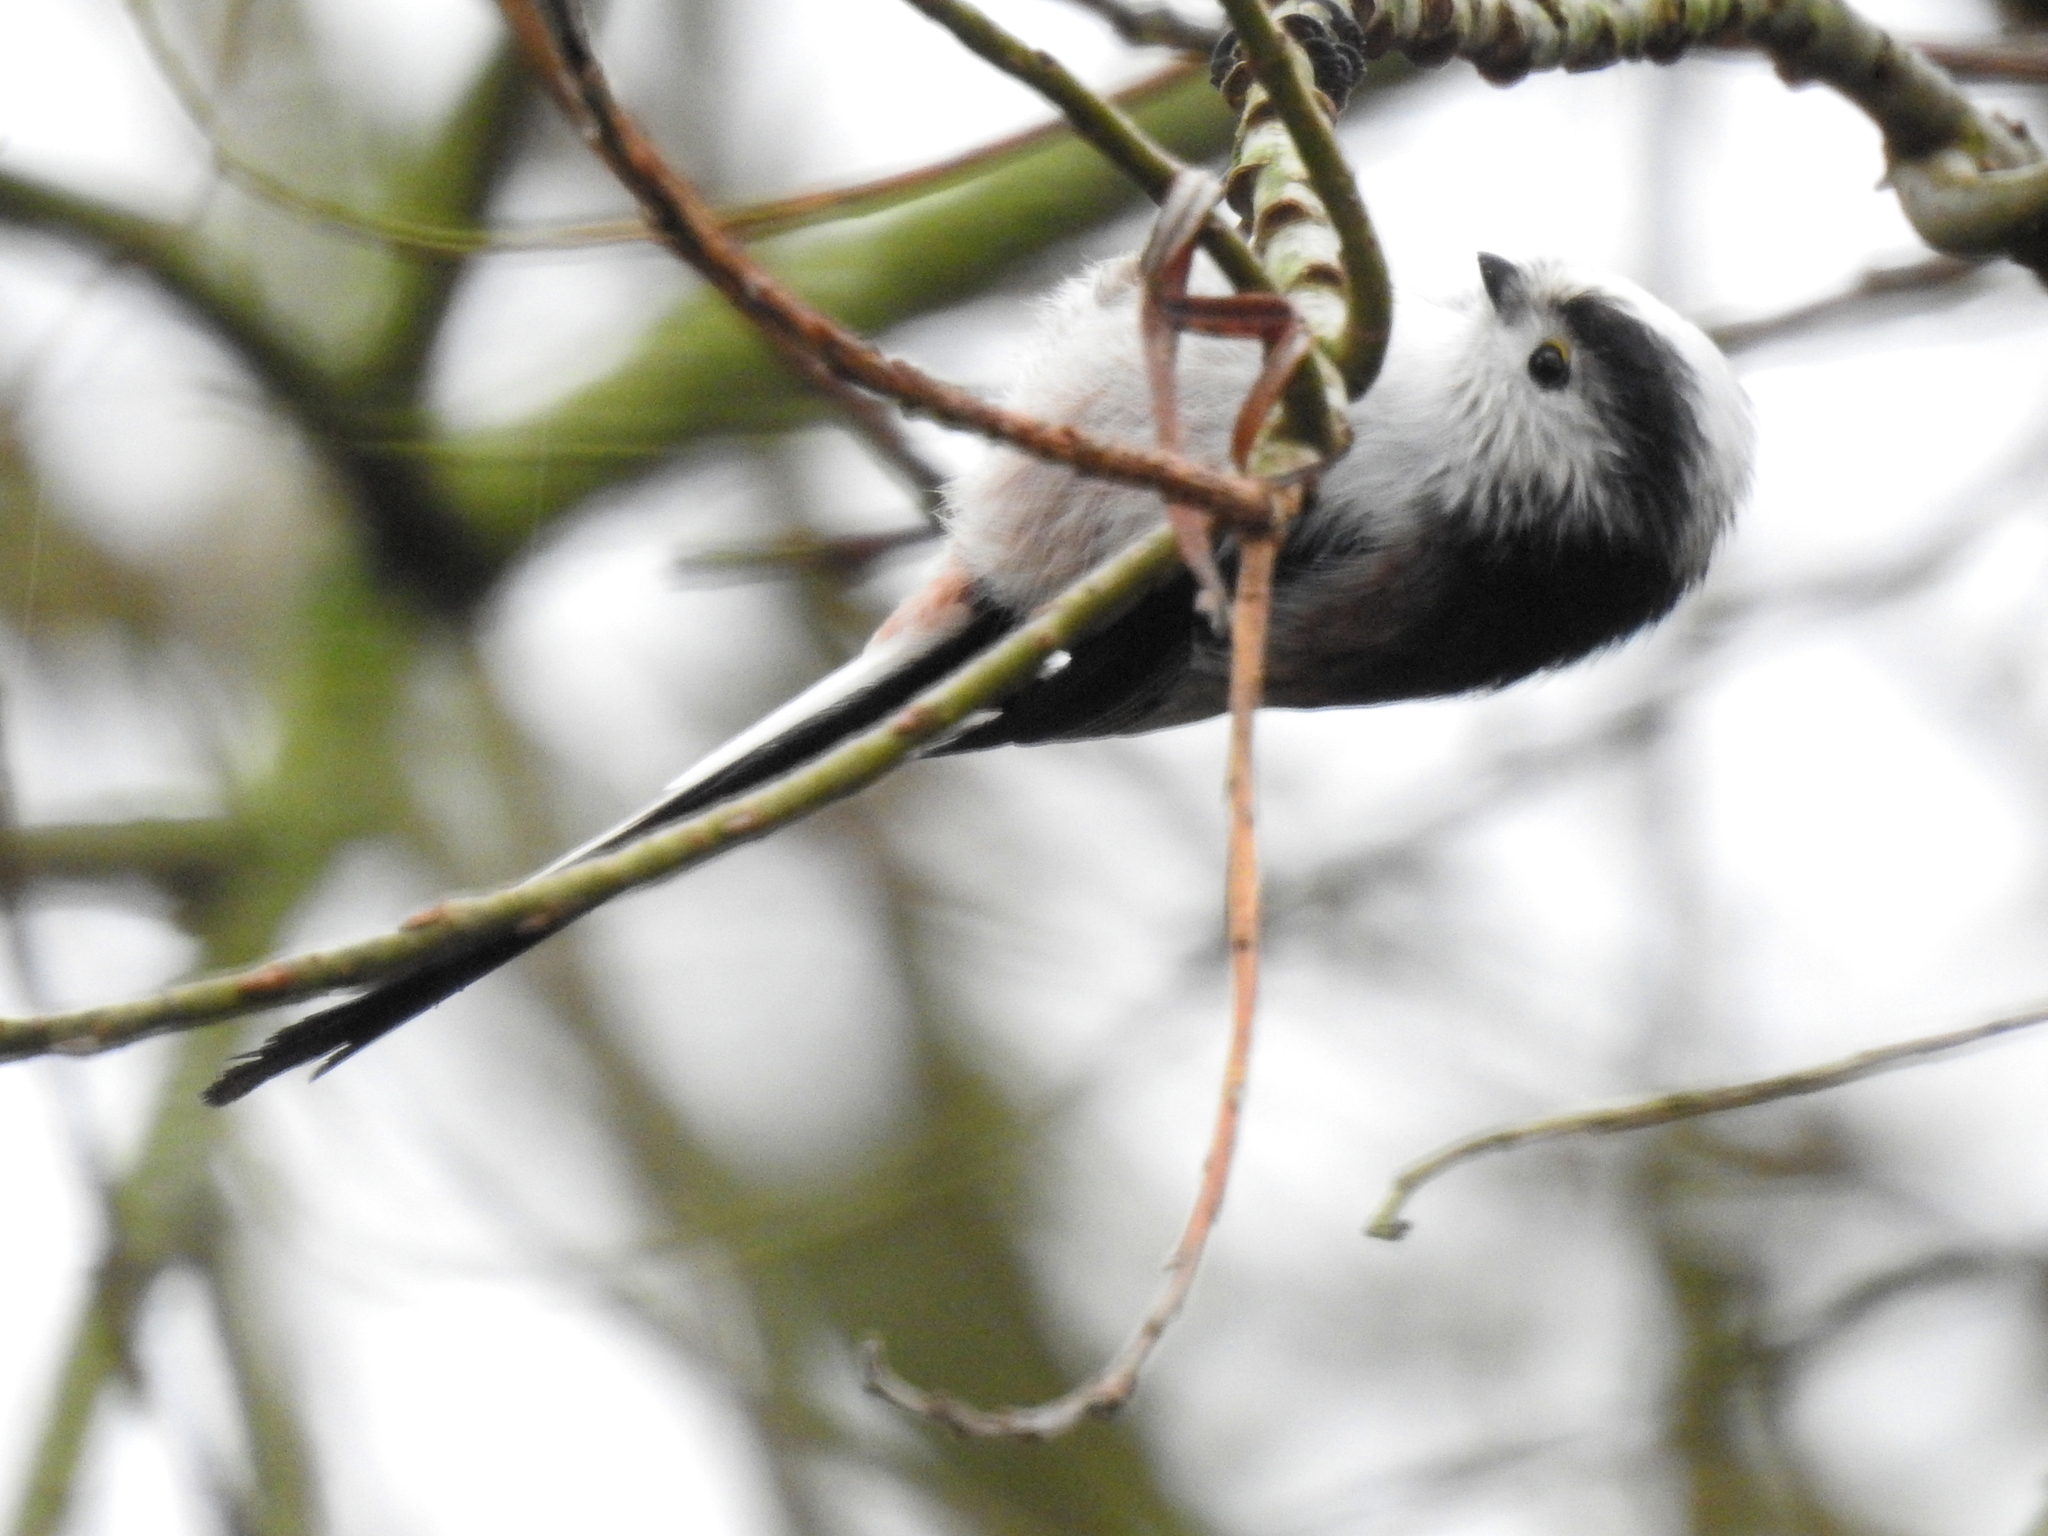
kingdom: Animalia
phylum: Chordata
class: Aves
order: Passeriformes
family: Aegithalidae
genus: Aegithalos
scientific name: Aegithalos caudatus
